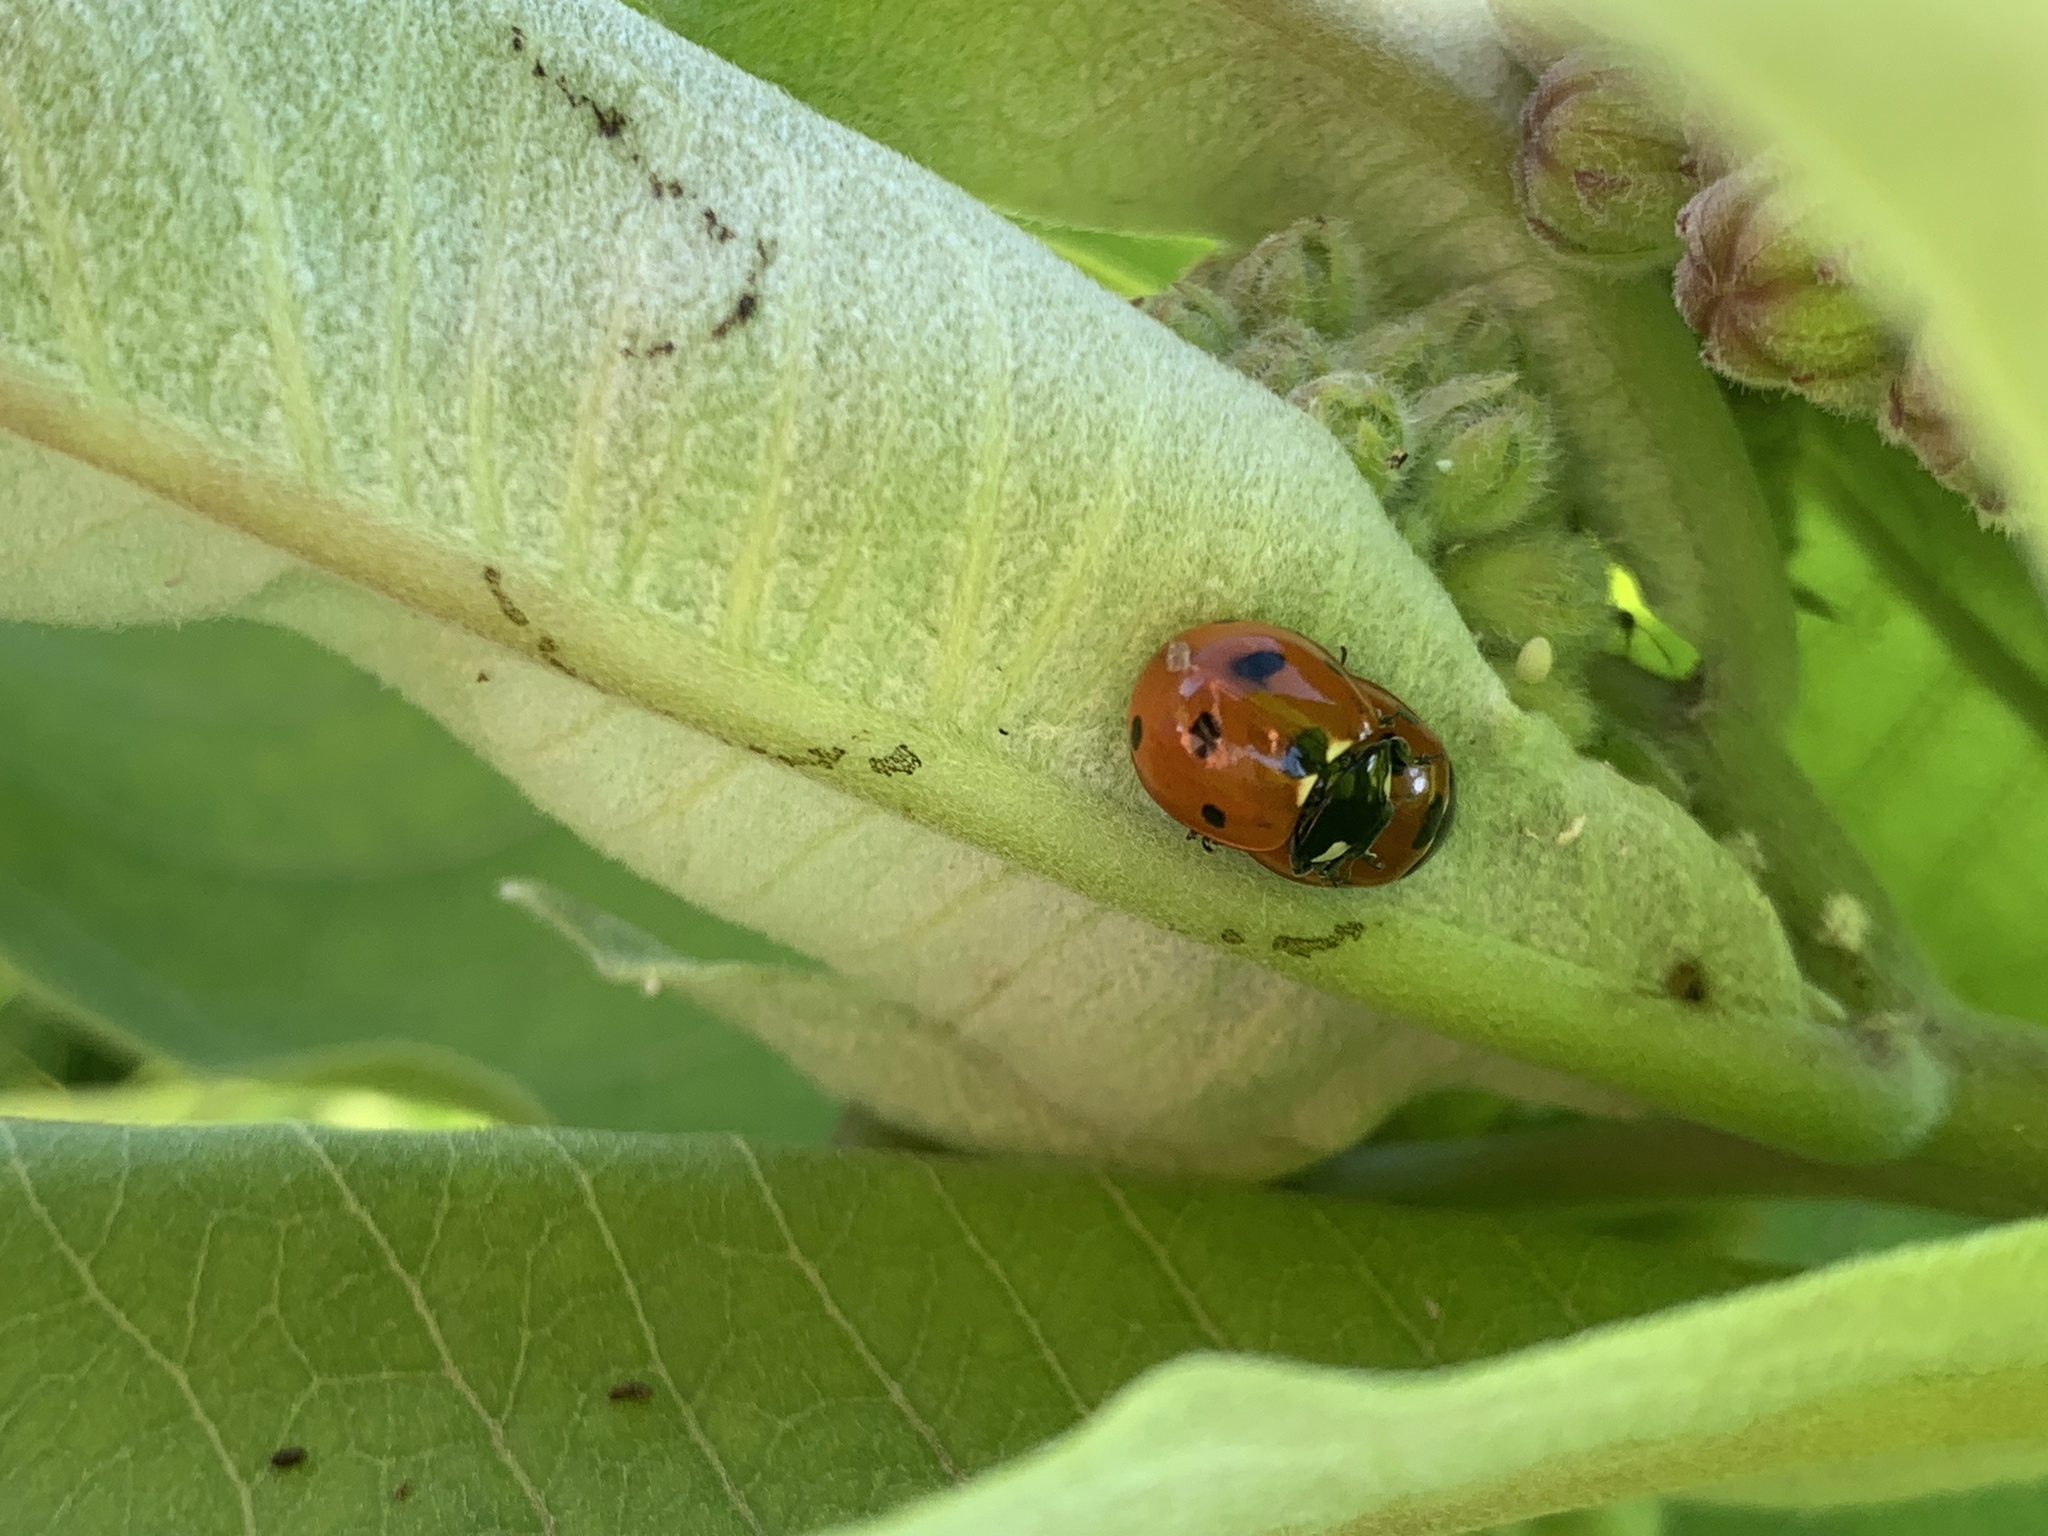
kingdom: Animalia
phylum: Arthropoda
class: Insecta
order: Coleoptera
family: Coccinellidae
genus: Coccinella
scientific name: Coccinella septempunctata
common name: Sevenspotted lady beetle
